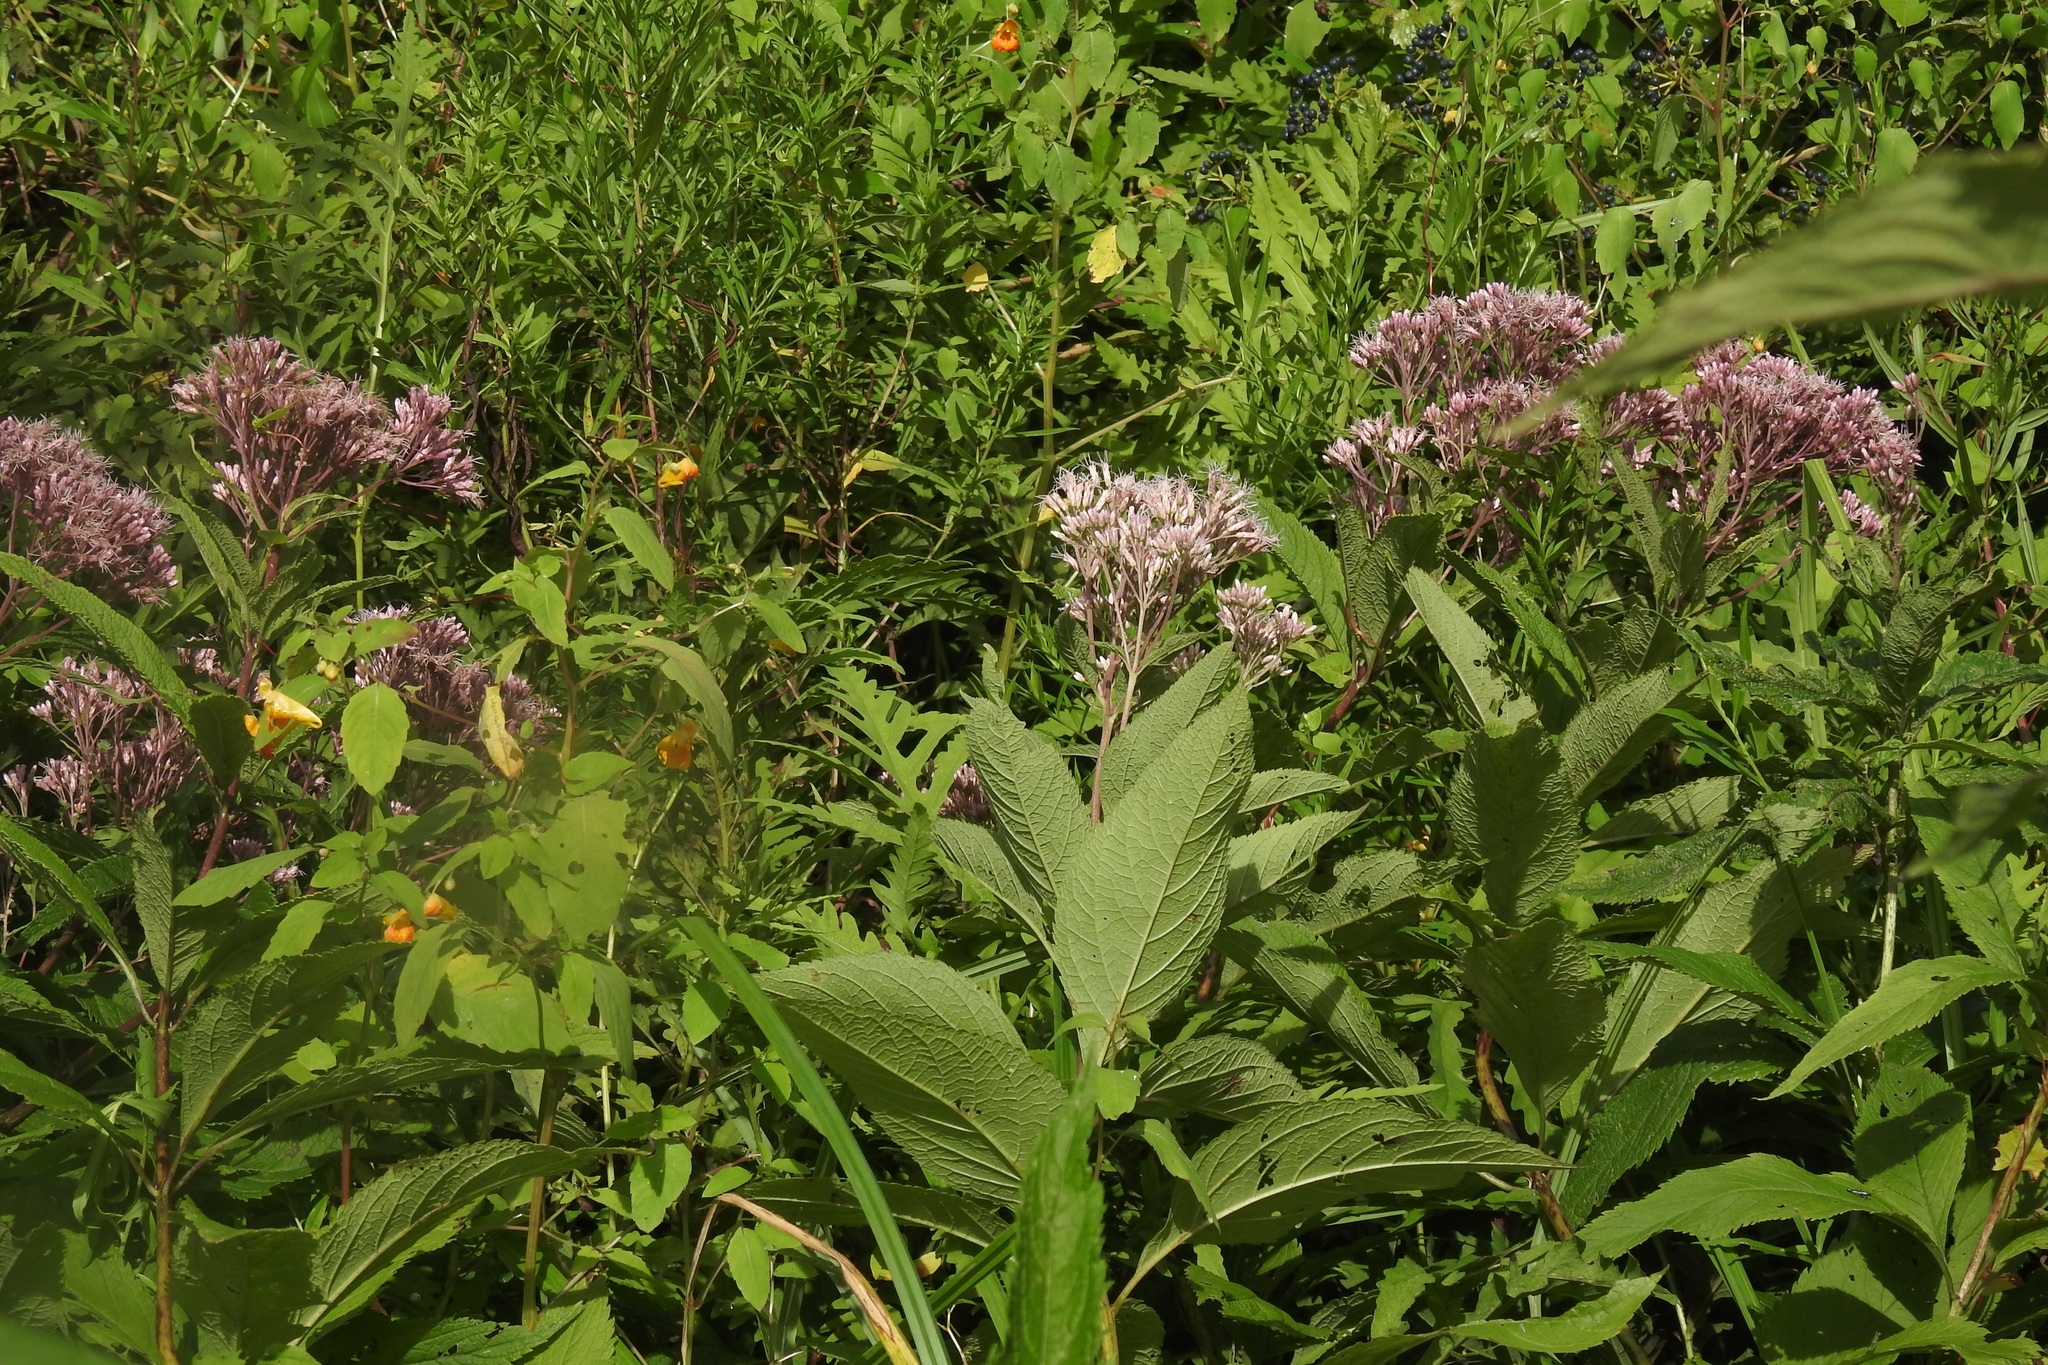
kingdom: Plantae
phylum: Tracheophyta
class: Magnoliopsida
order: Asterales
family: Asteraceae
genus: Eutrochium
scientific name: Eutrochium maculatum
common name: Spotted joe pye weed
